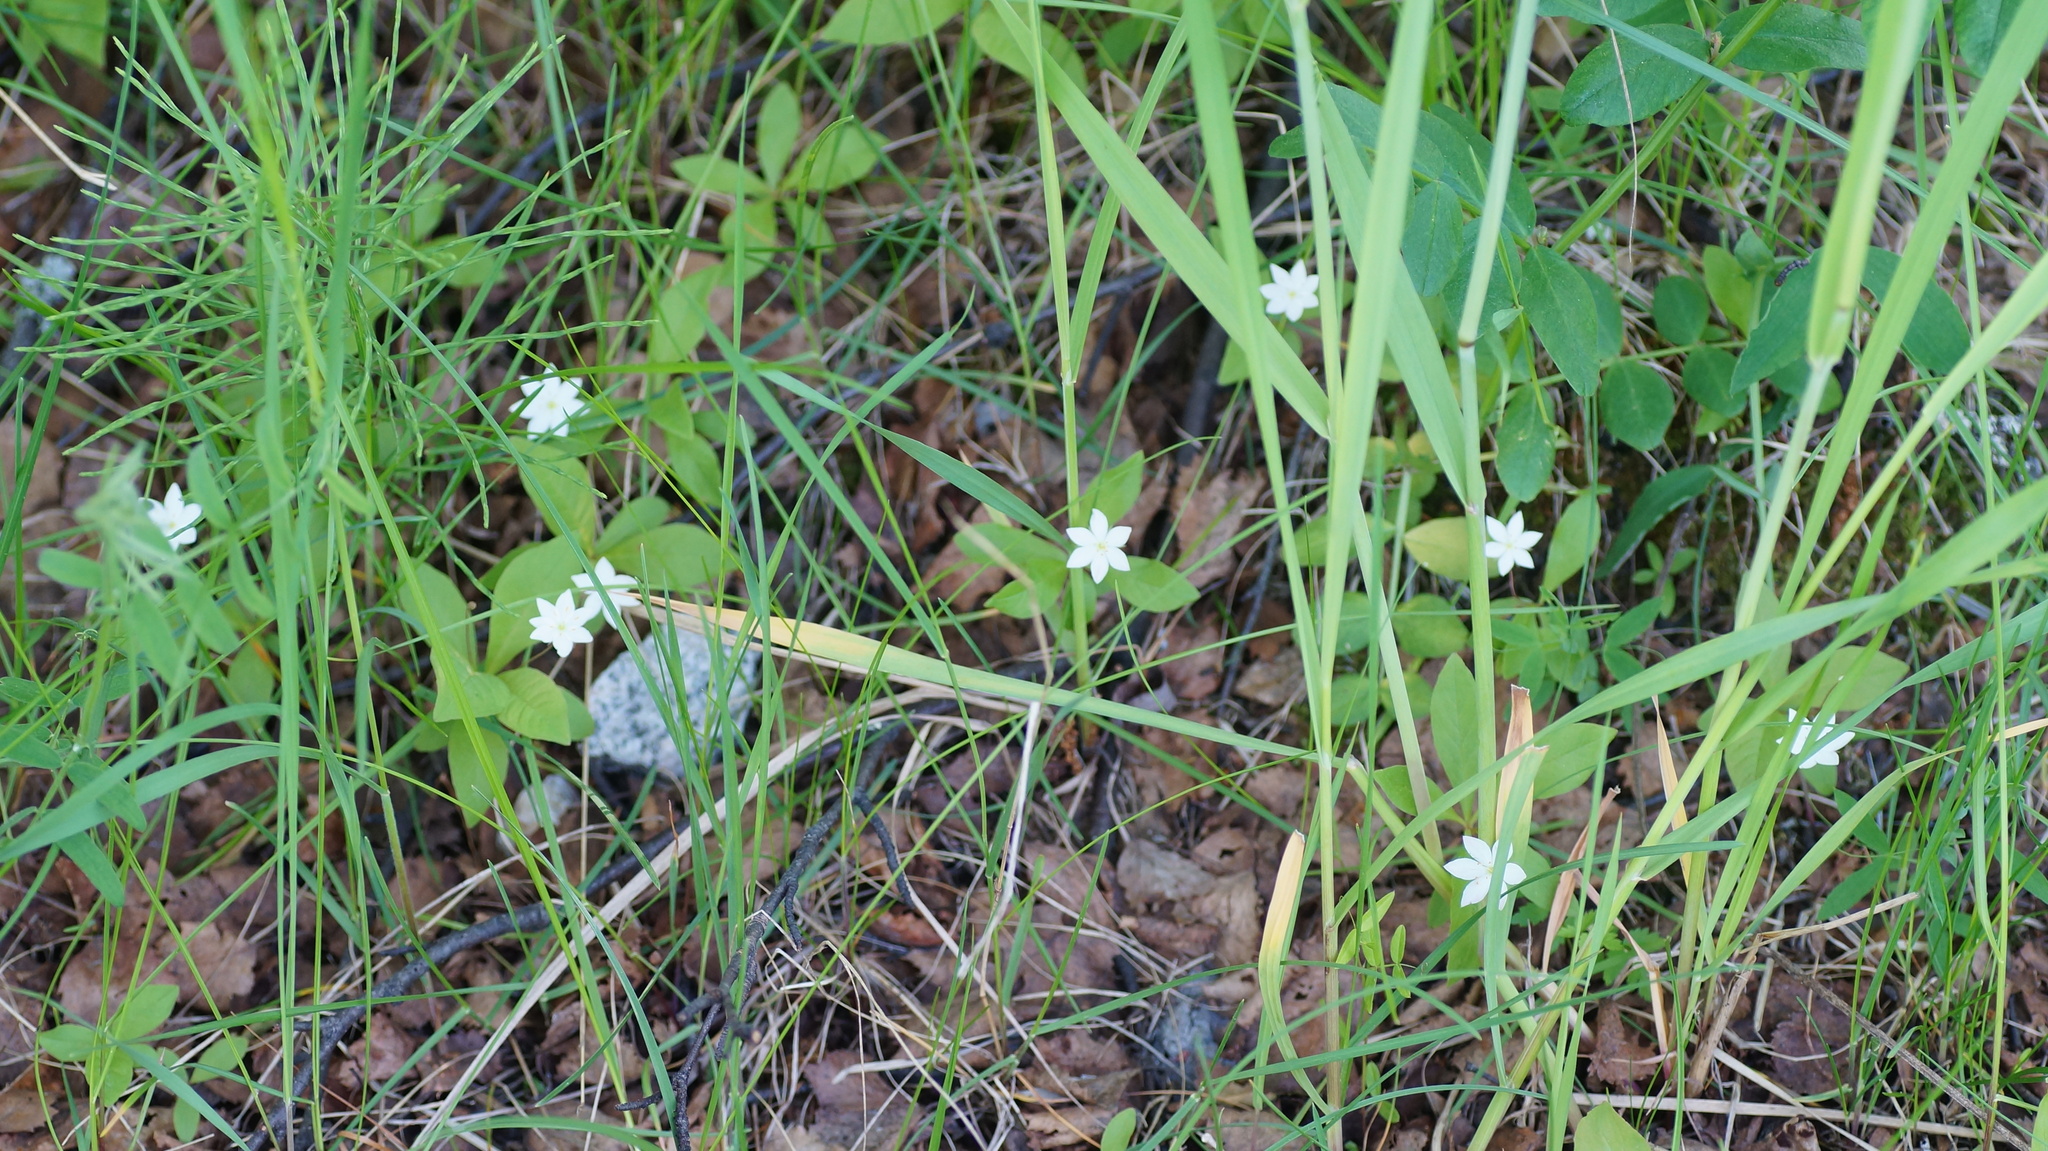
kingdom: Plantae
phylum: Tracheophyta
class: Magnoliopsida
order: Ericales
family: Primulaceae
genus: Lysimachia
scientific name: Lysimachia europaea
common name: Arctic starflower
